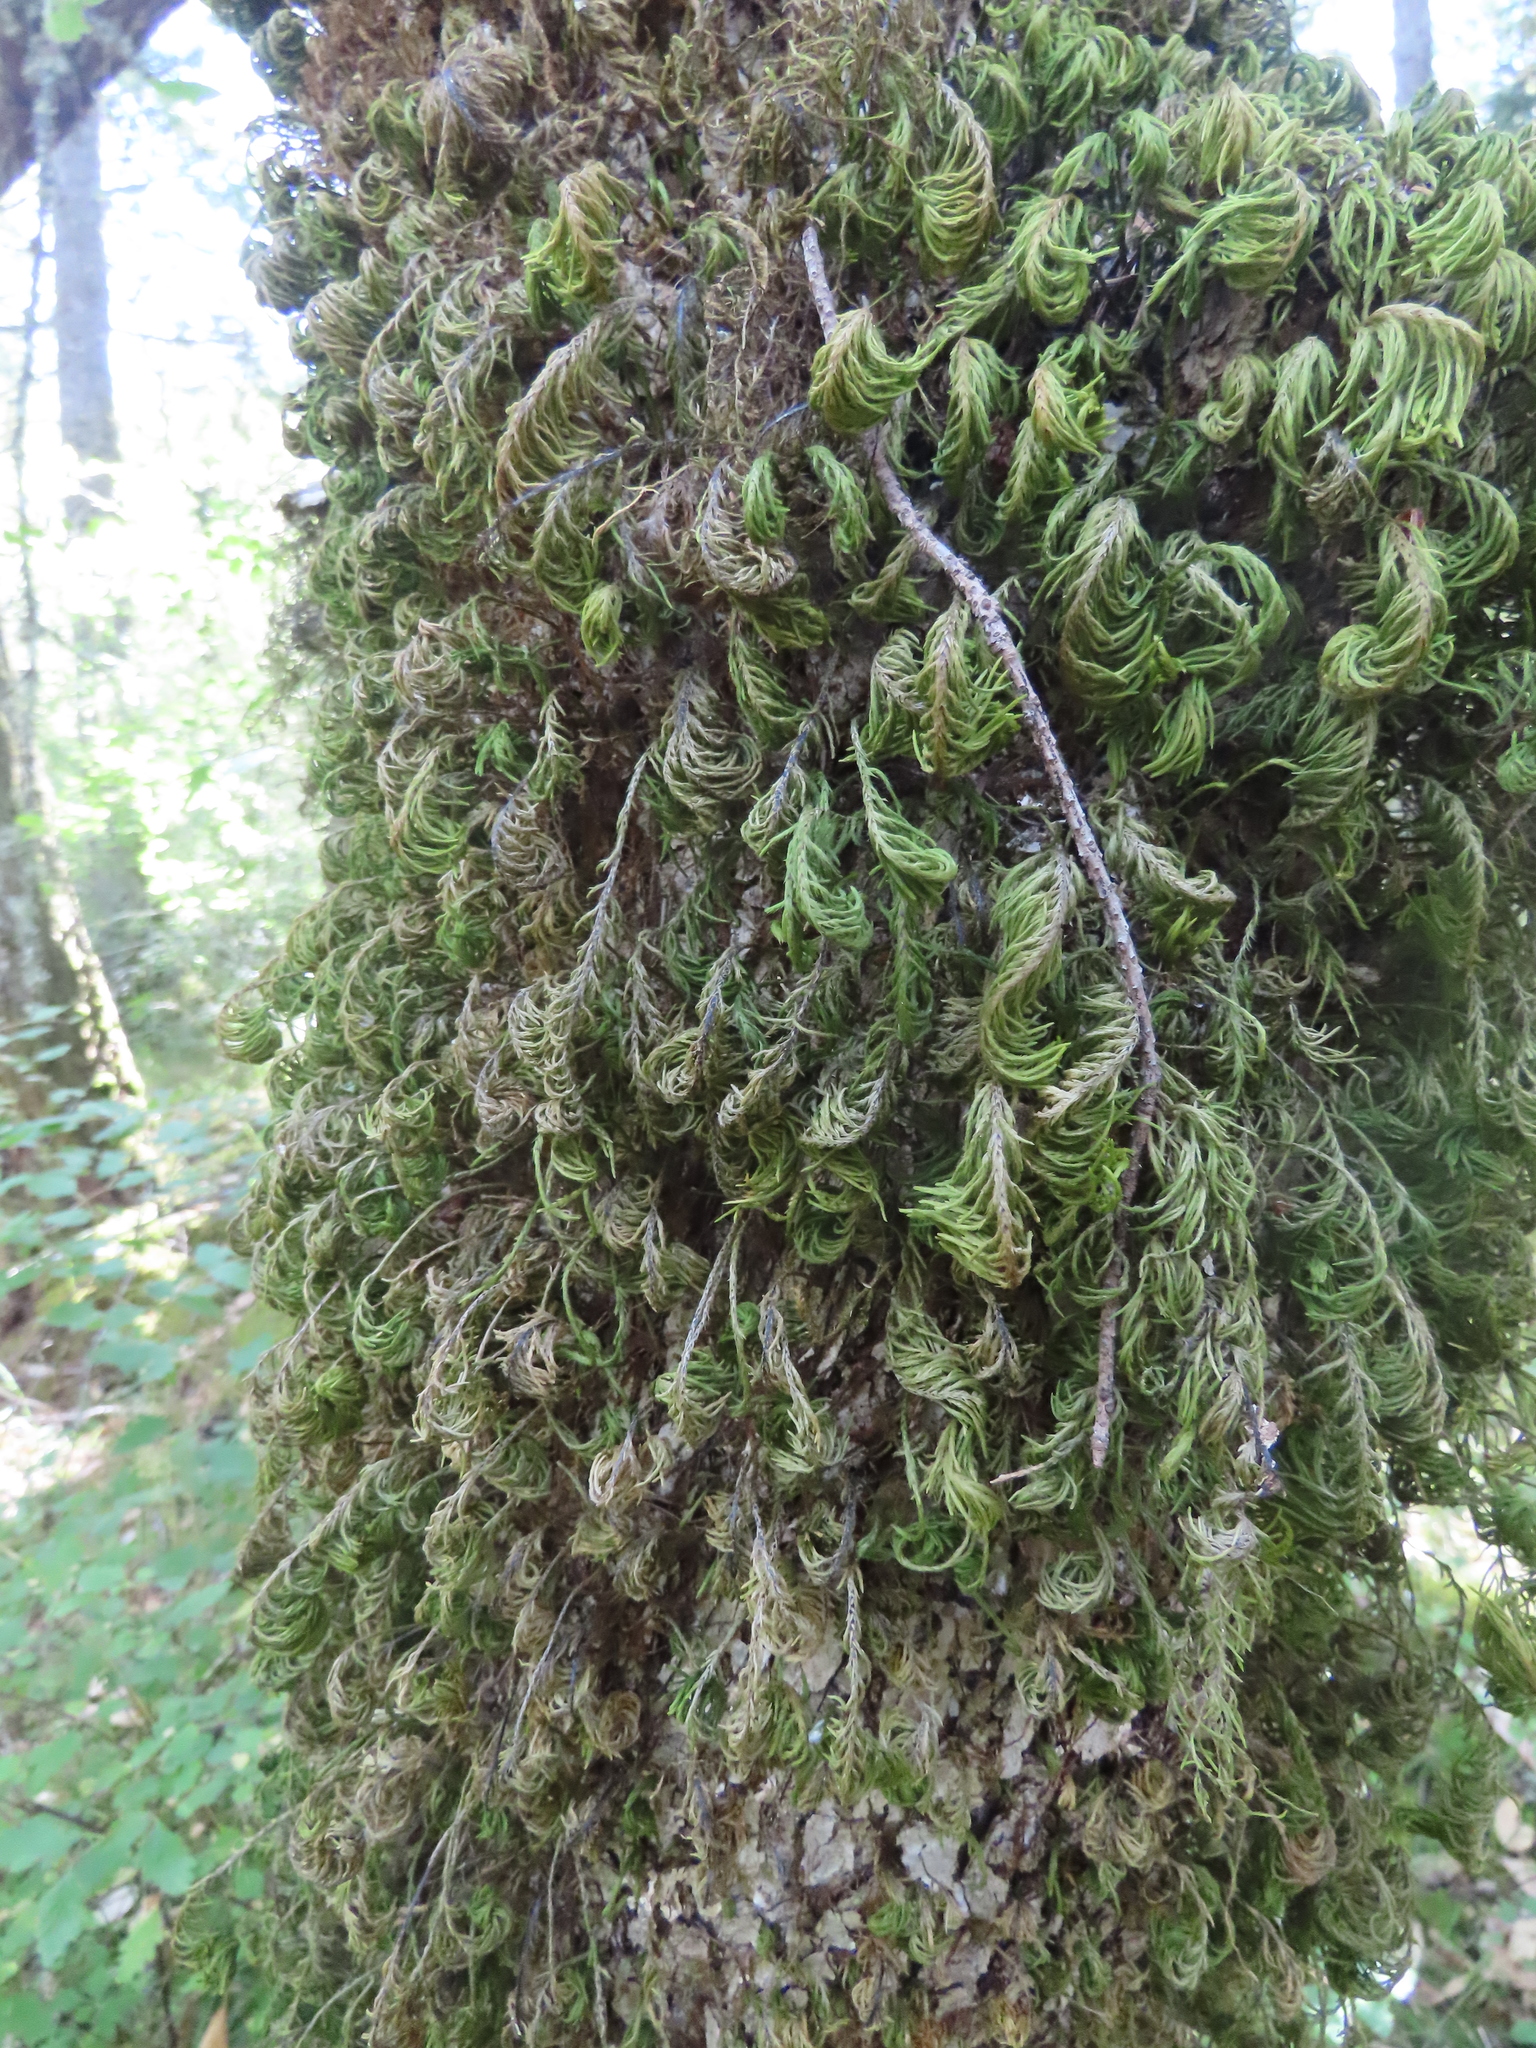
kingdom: Plantae
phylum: Bryophyta
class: Bryopsida
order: Hypnales
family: Cryphaeaceae
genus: Dendroalsia
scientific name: Dendroalsia abietina
